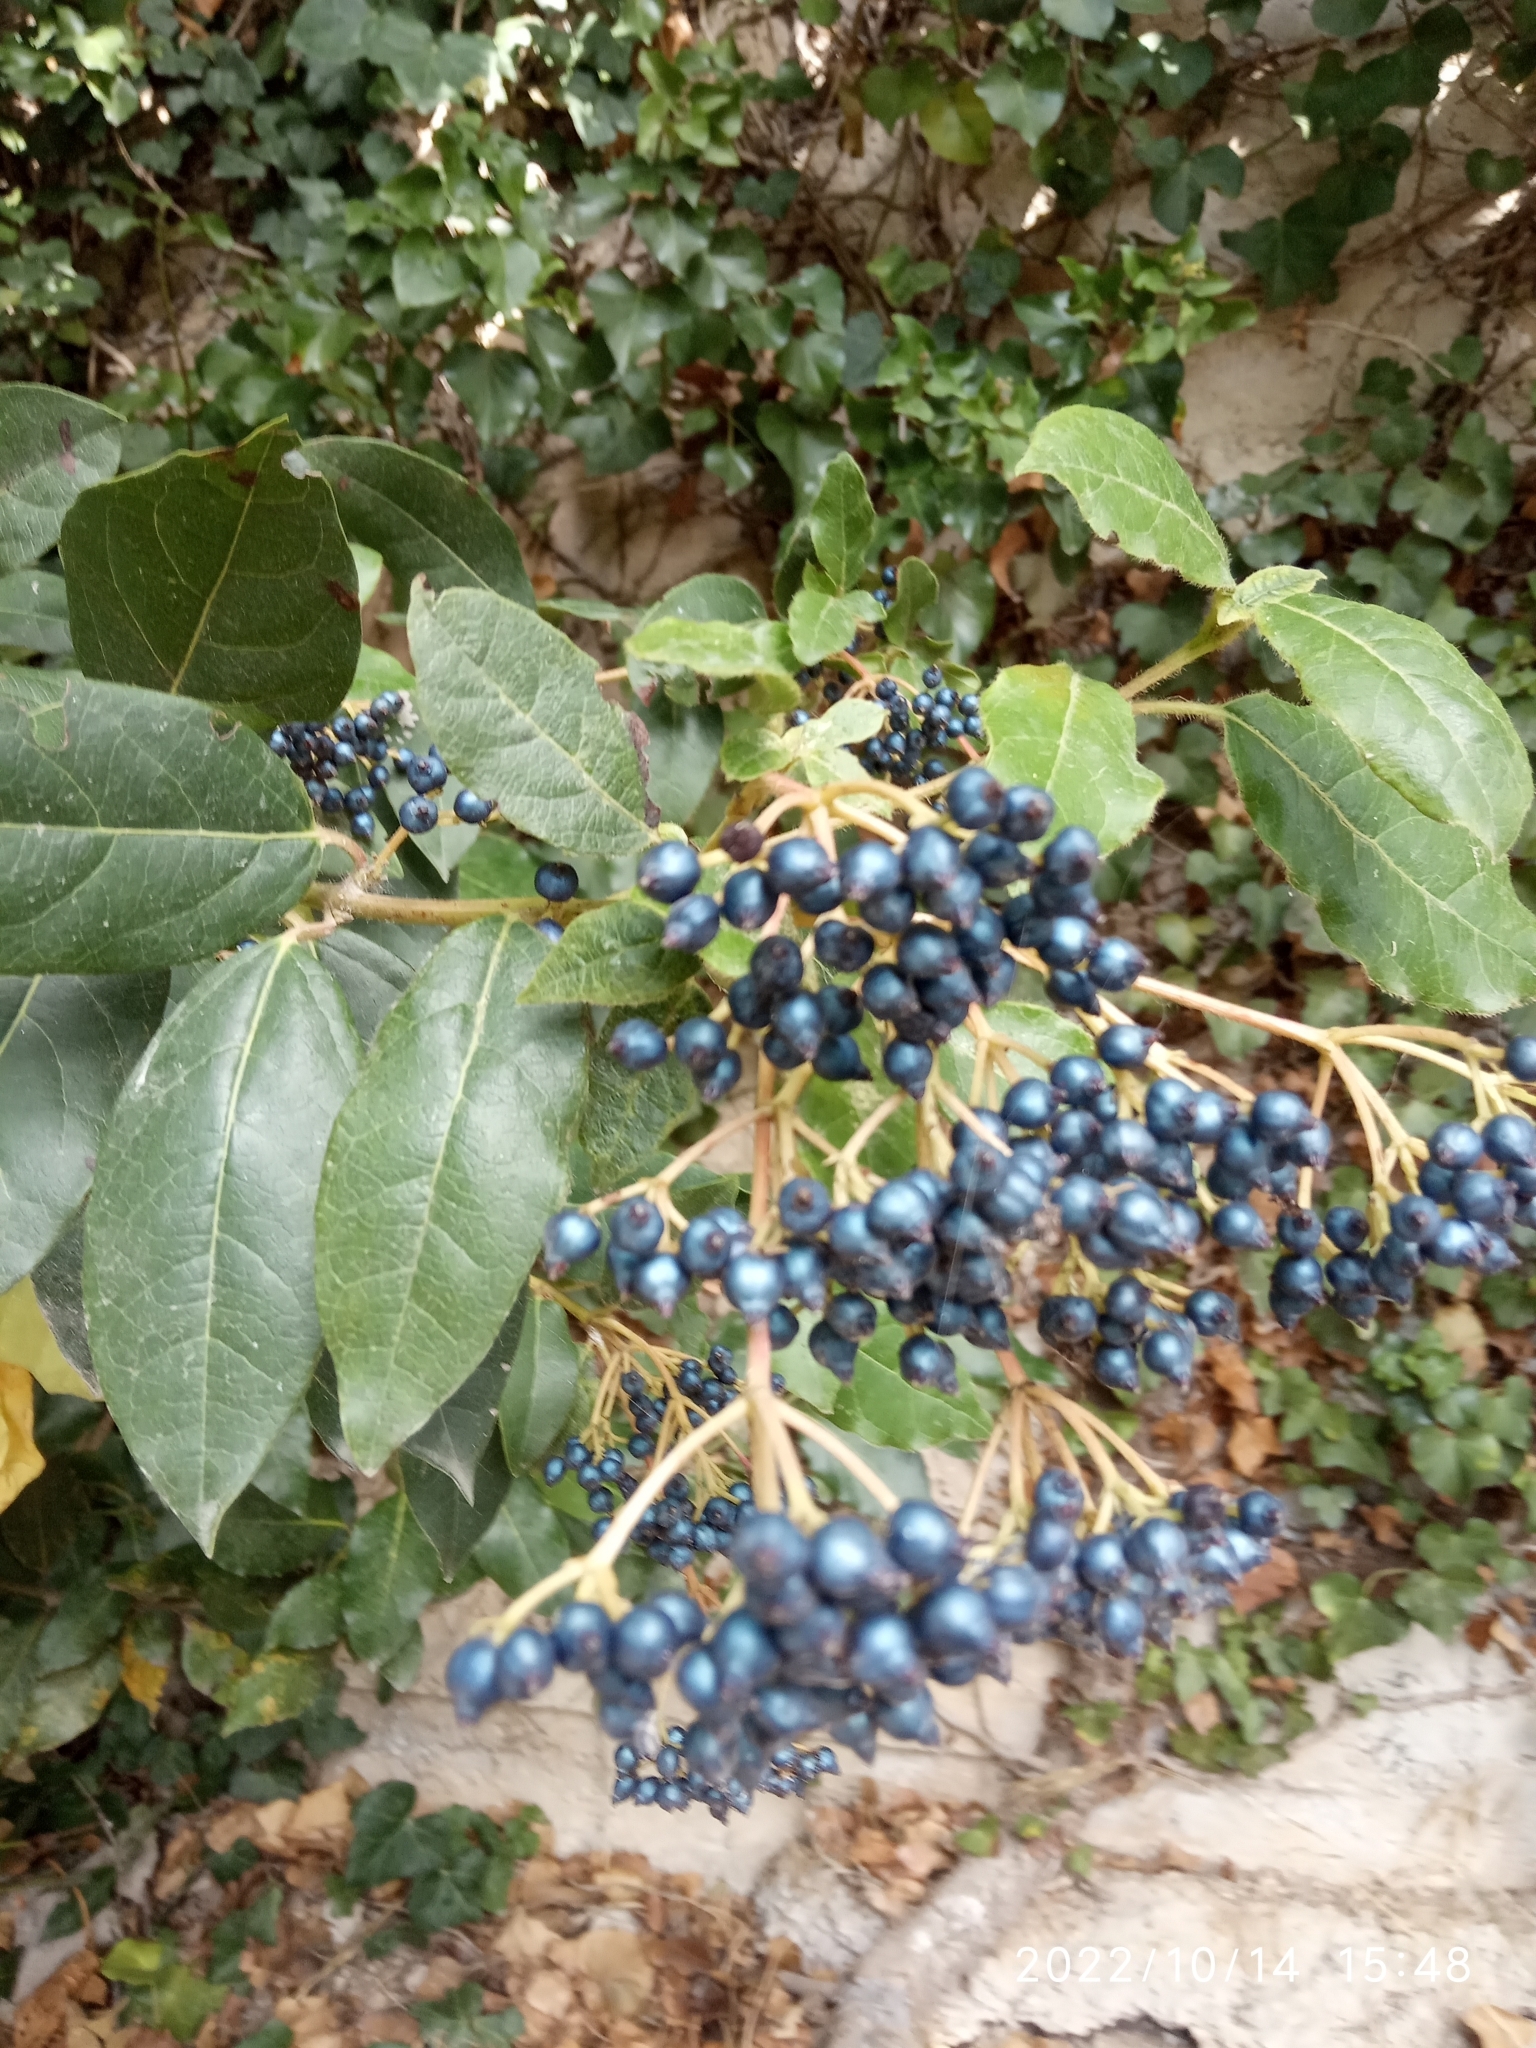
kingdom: Plantae
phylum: Tracheophyta
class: Magnoliopsida
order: Dipsacales
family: Viburnaceae
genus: Viburnum
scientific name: Viburnum tinus
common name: Laurustinus
